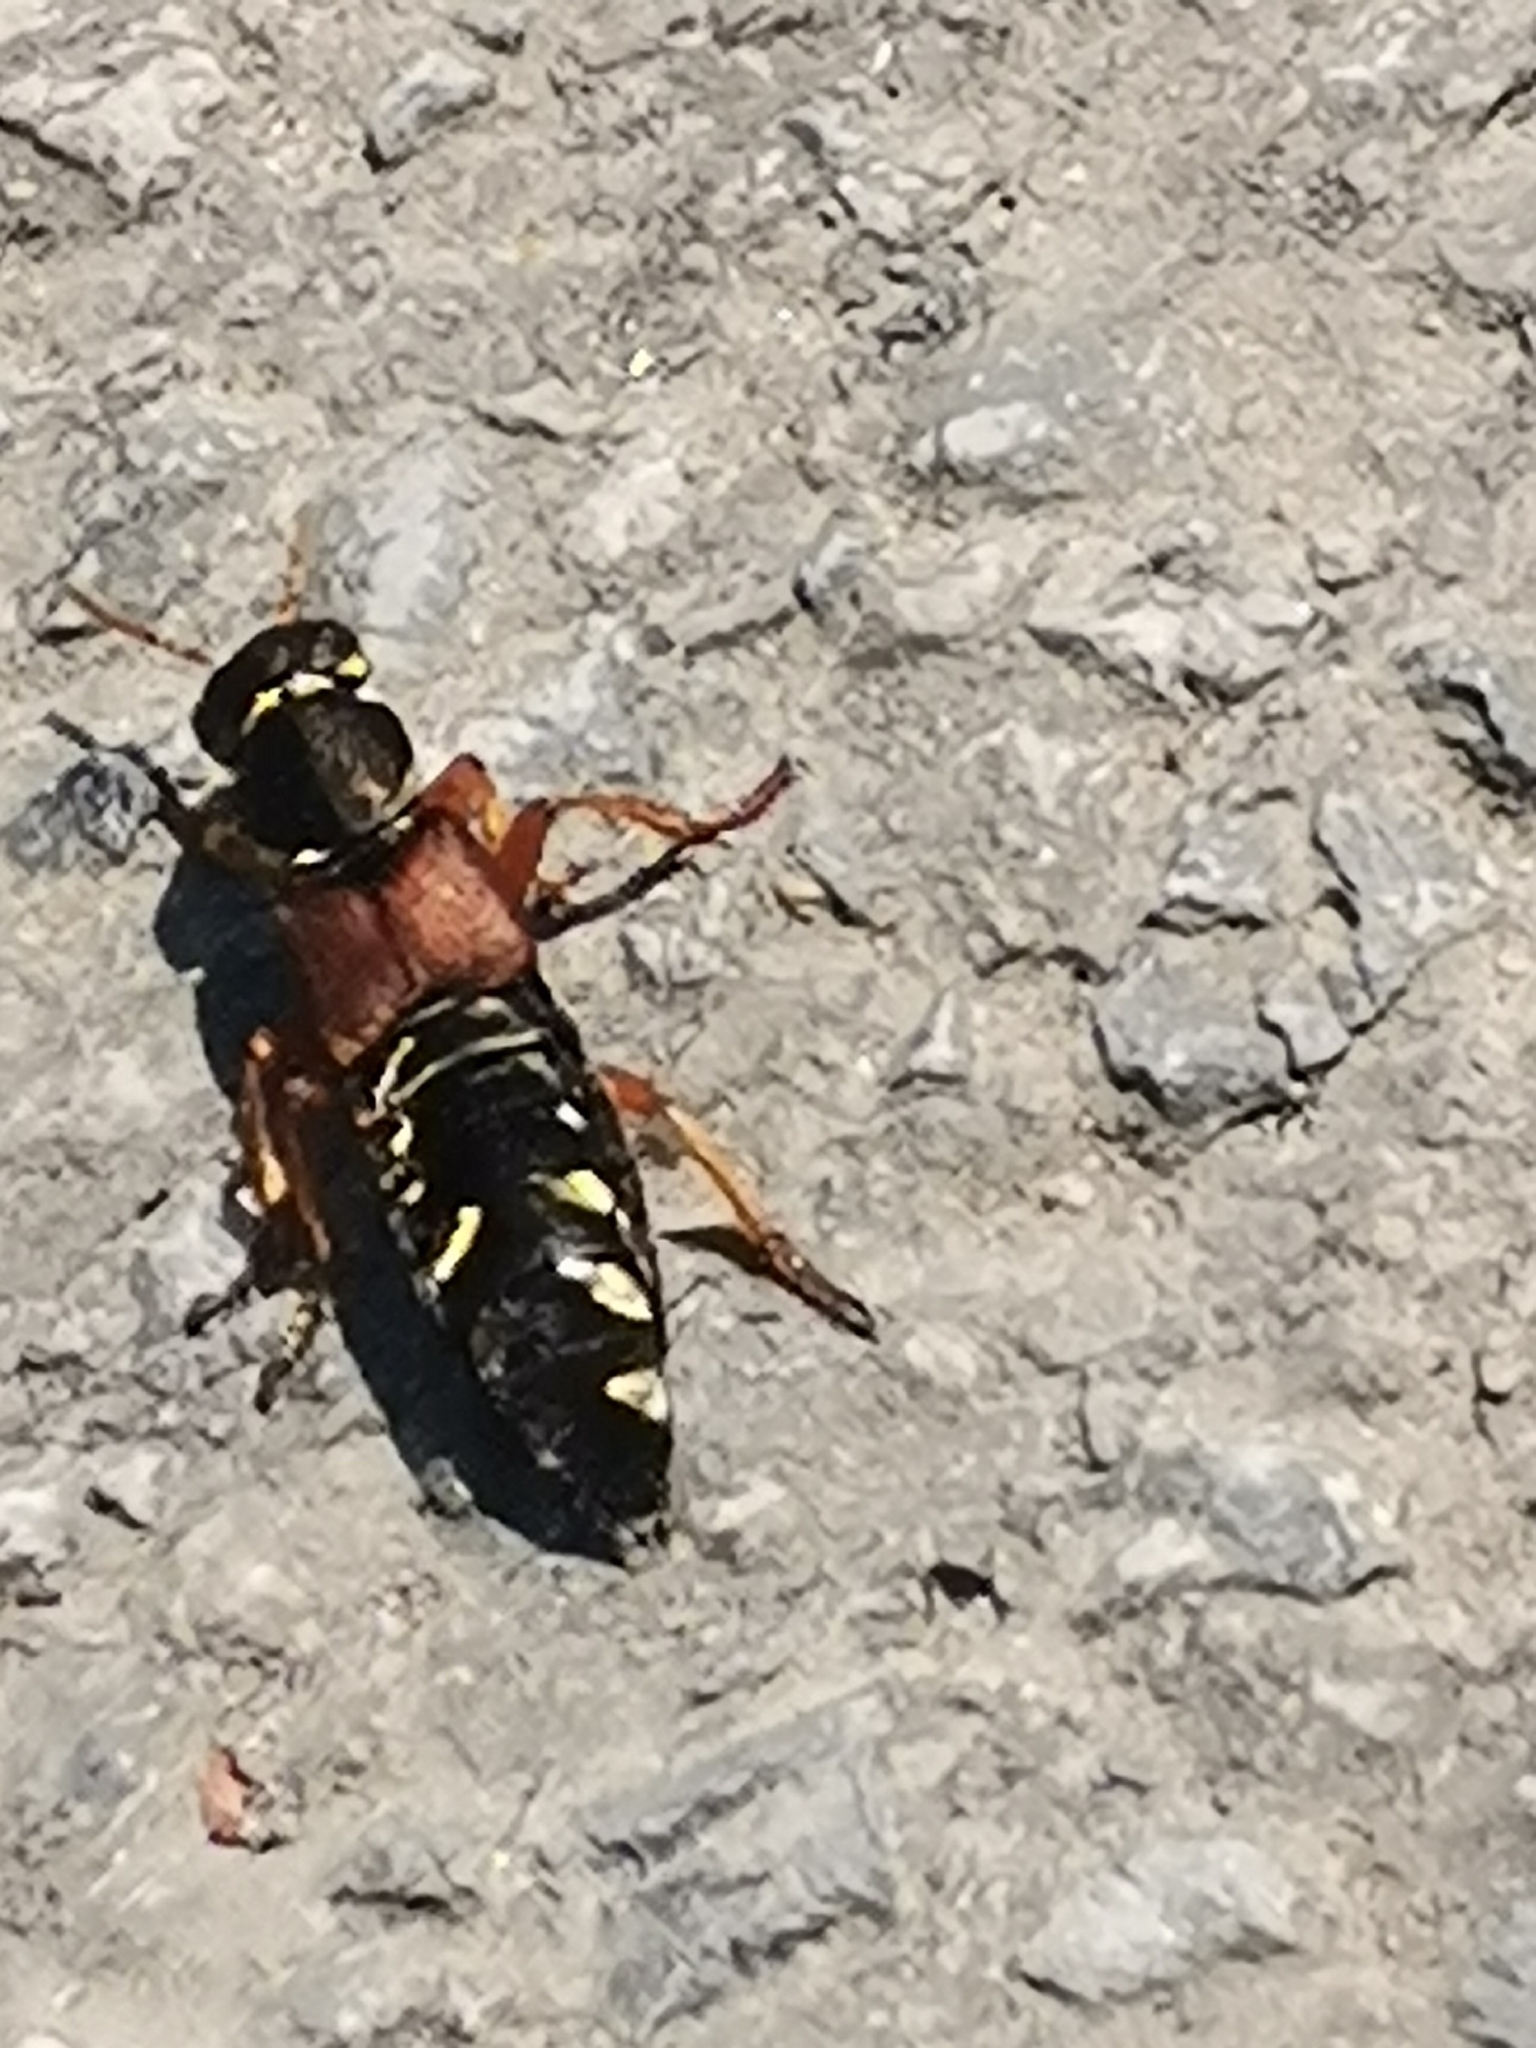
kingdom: Animalia
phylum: Arthropoda
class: Insecta
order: Coleoptera
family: Staphylinidae
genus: Staphylinus
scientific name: Staphylinus caesareus
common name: Staph beetle
